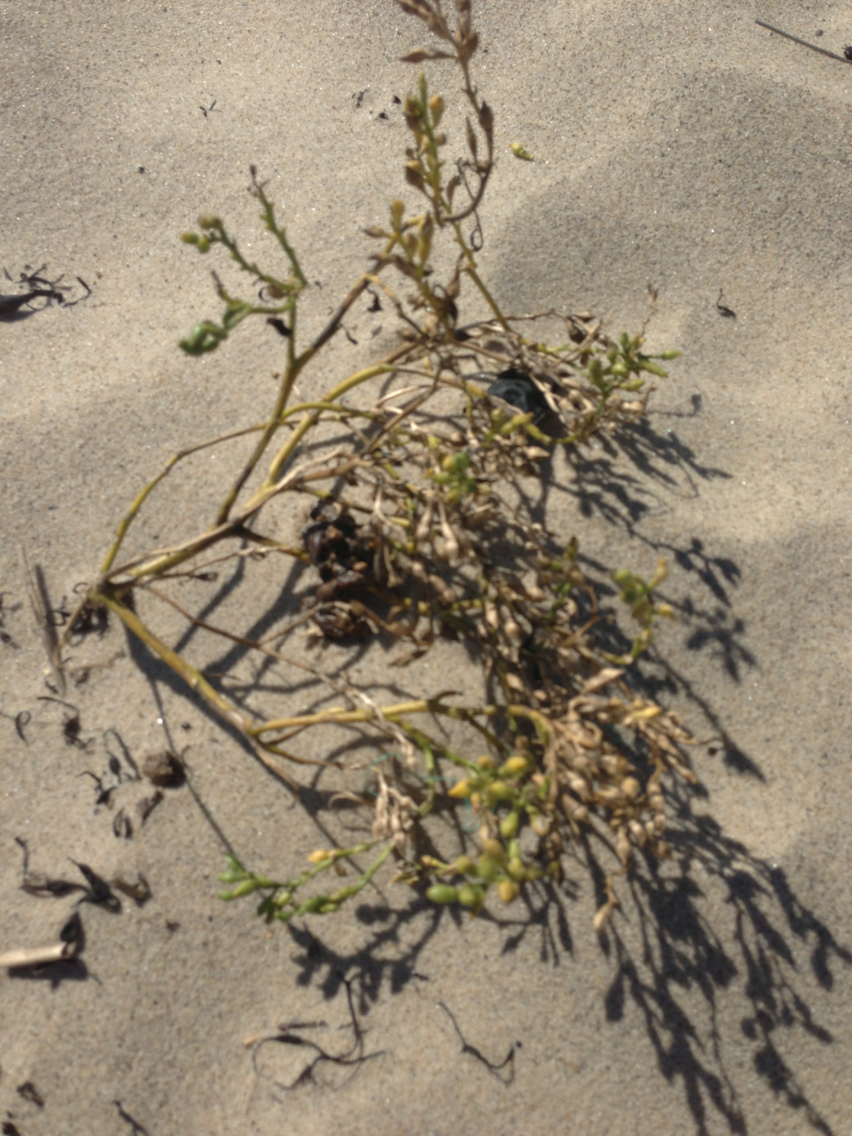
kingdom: Plantae
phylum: Tracheophyta
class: Magnoliopsida
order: Brassicales
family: Brassicaceae
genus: Cakile
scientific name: Cakile edentula
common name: American sea rocket
